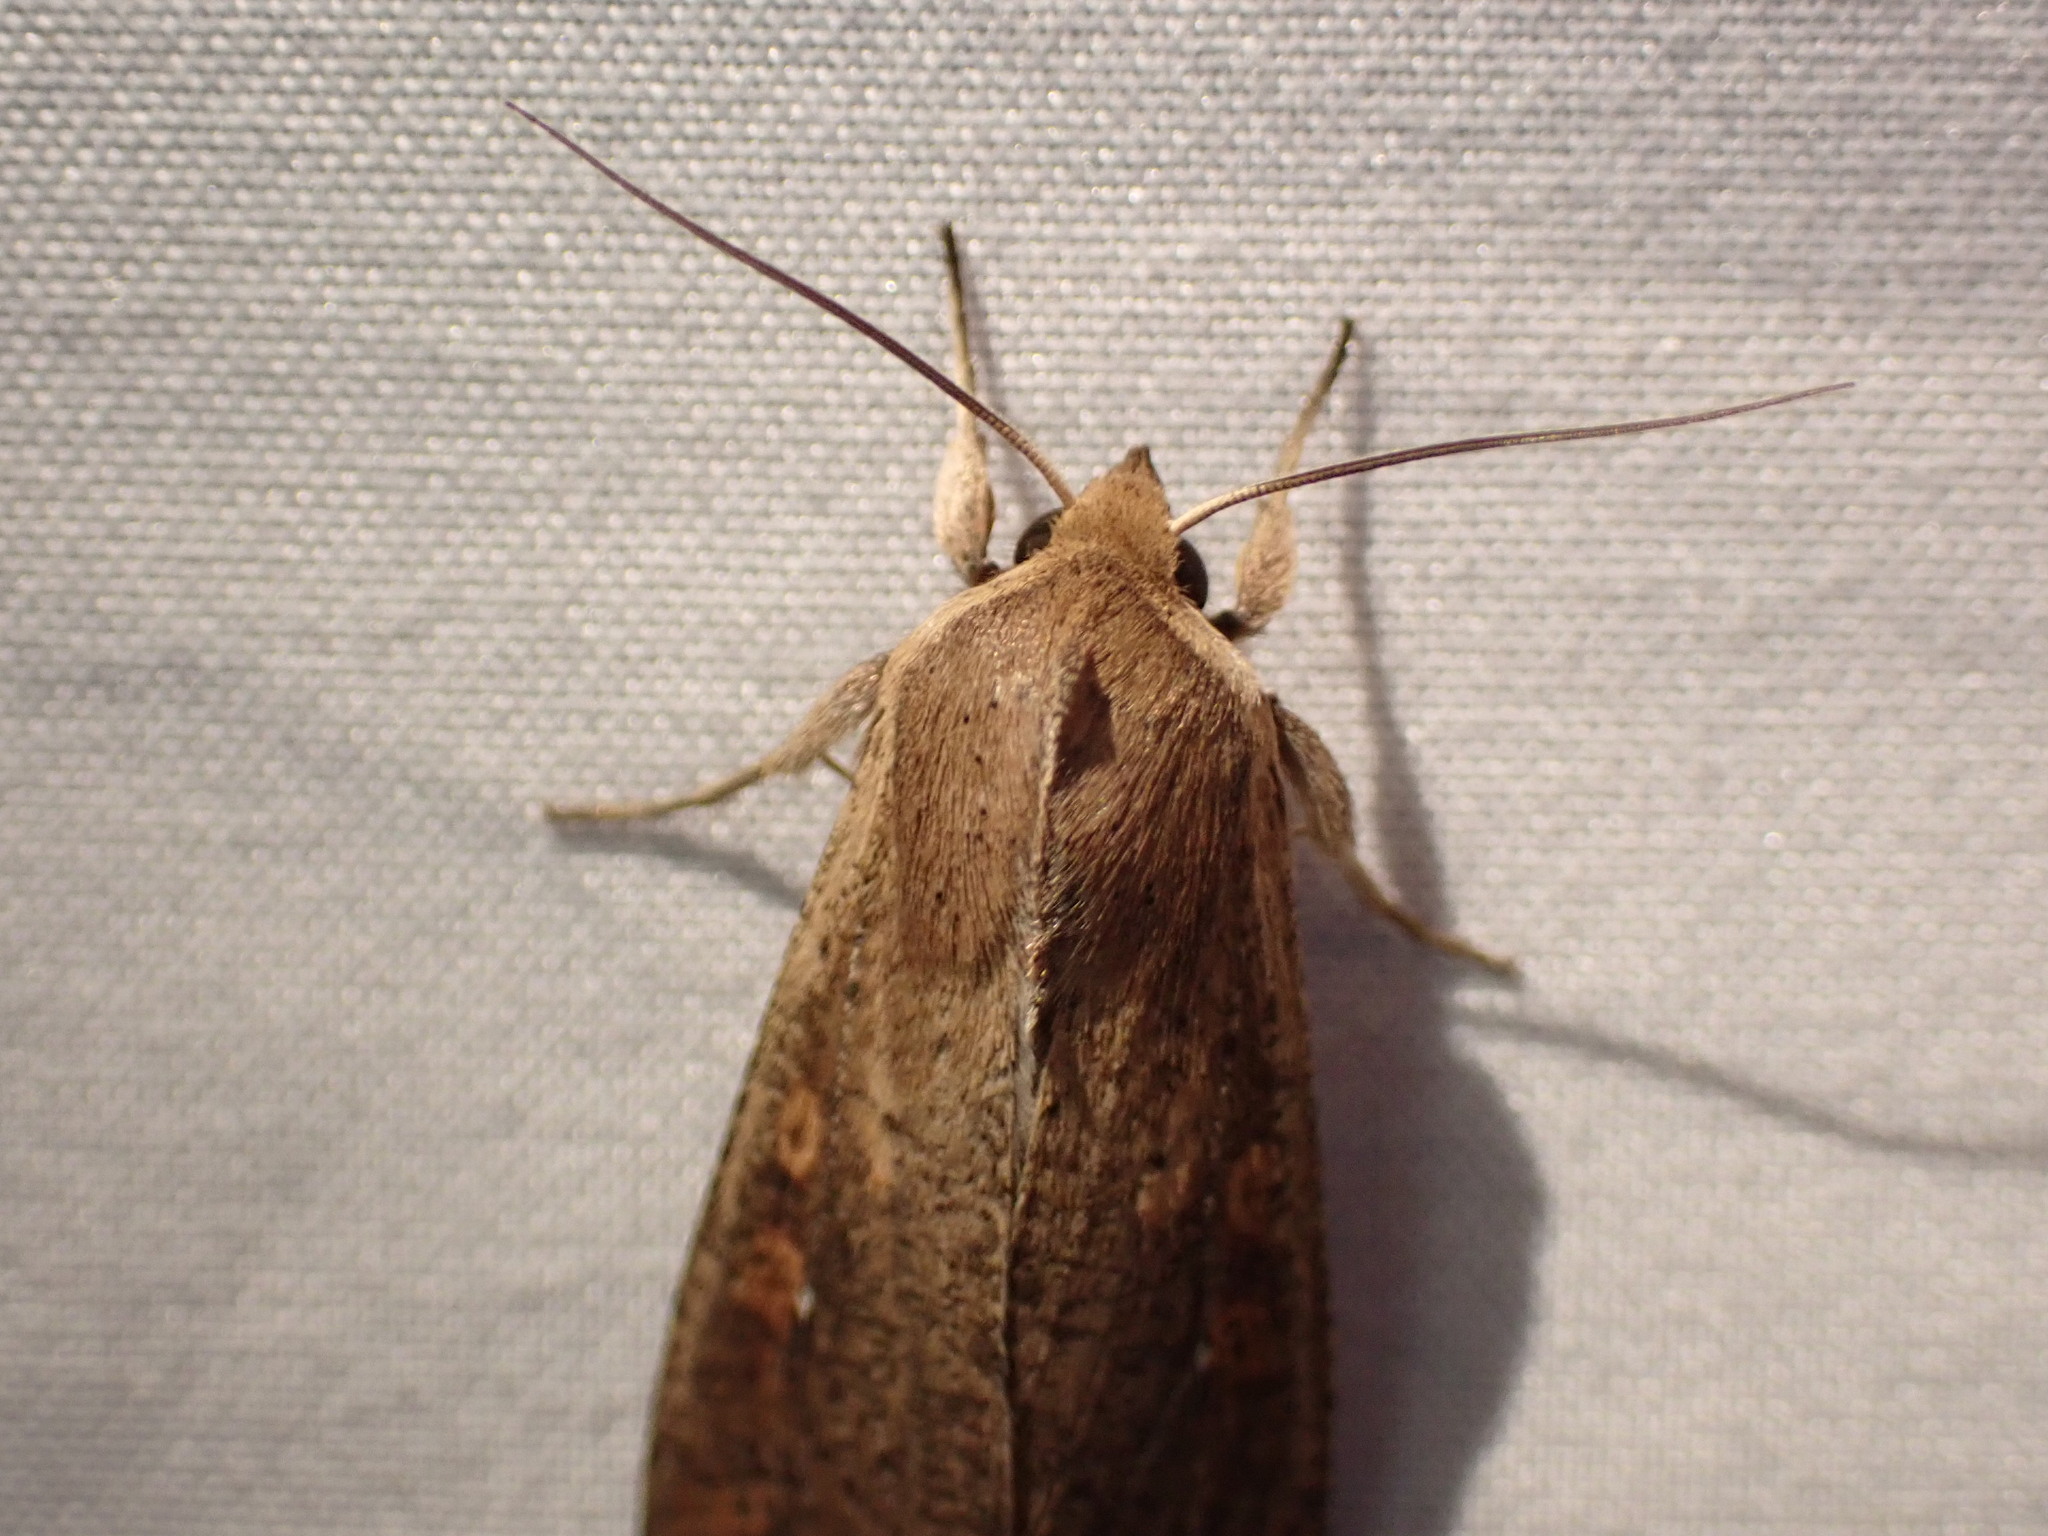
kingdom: Animalia
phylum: Arthropoda
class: Insecta
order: Lepidoptera
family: Noctuidae
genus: Mythimna
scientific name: Mythimna unipuncta
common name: White-speck
